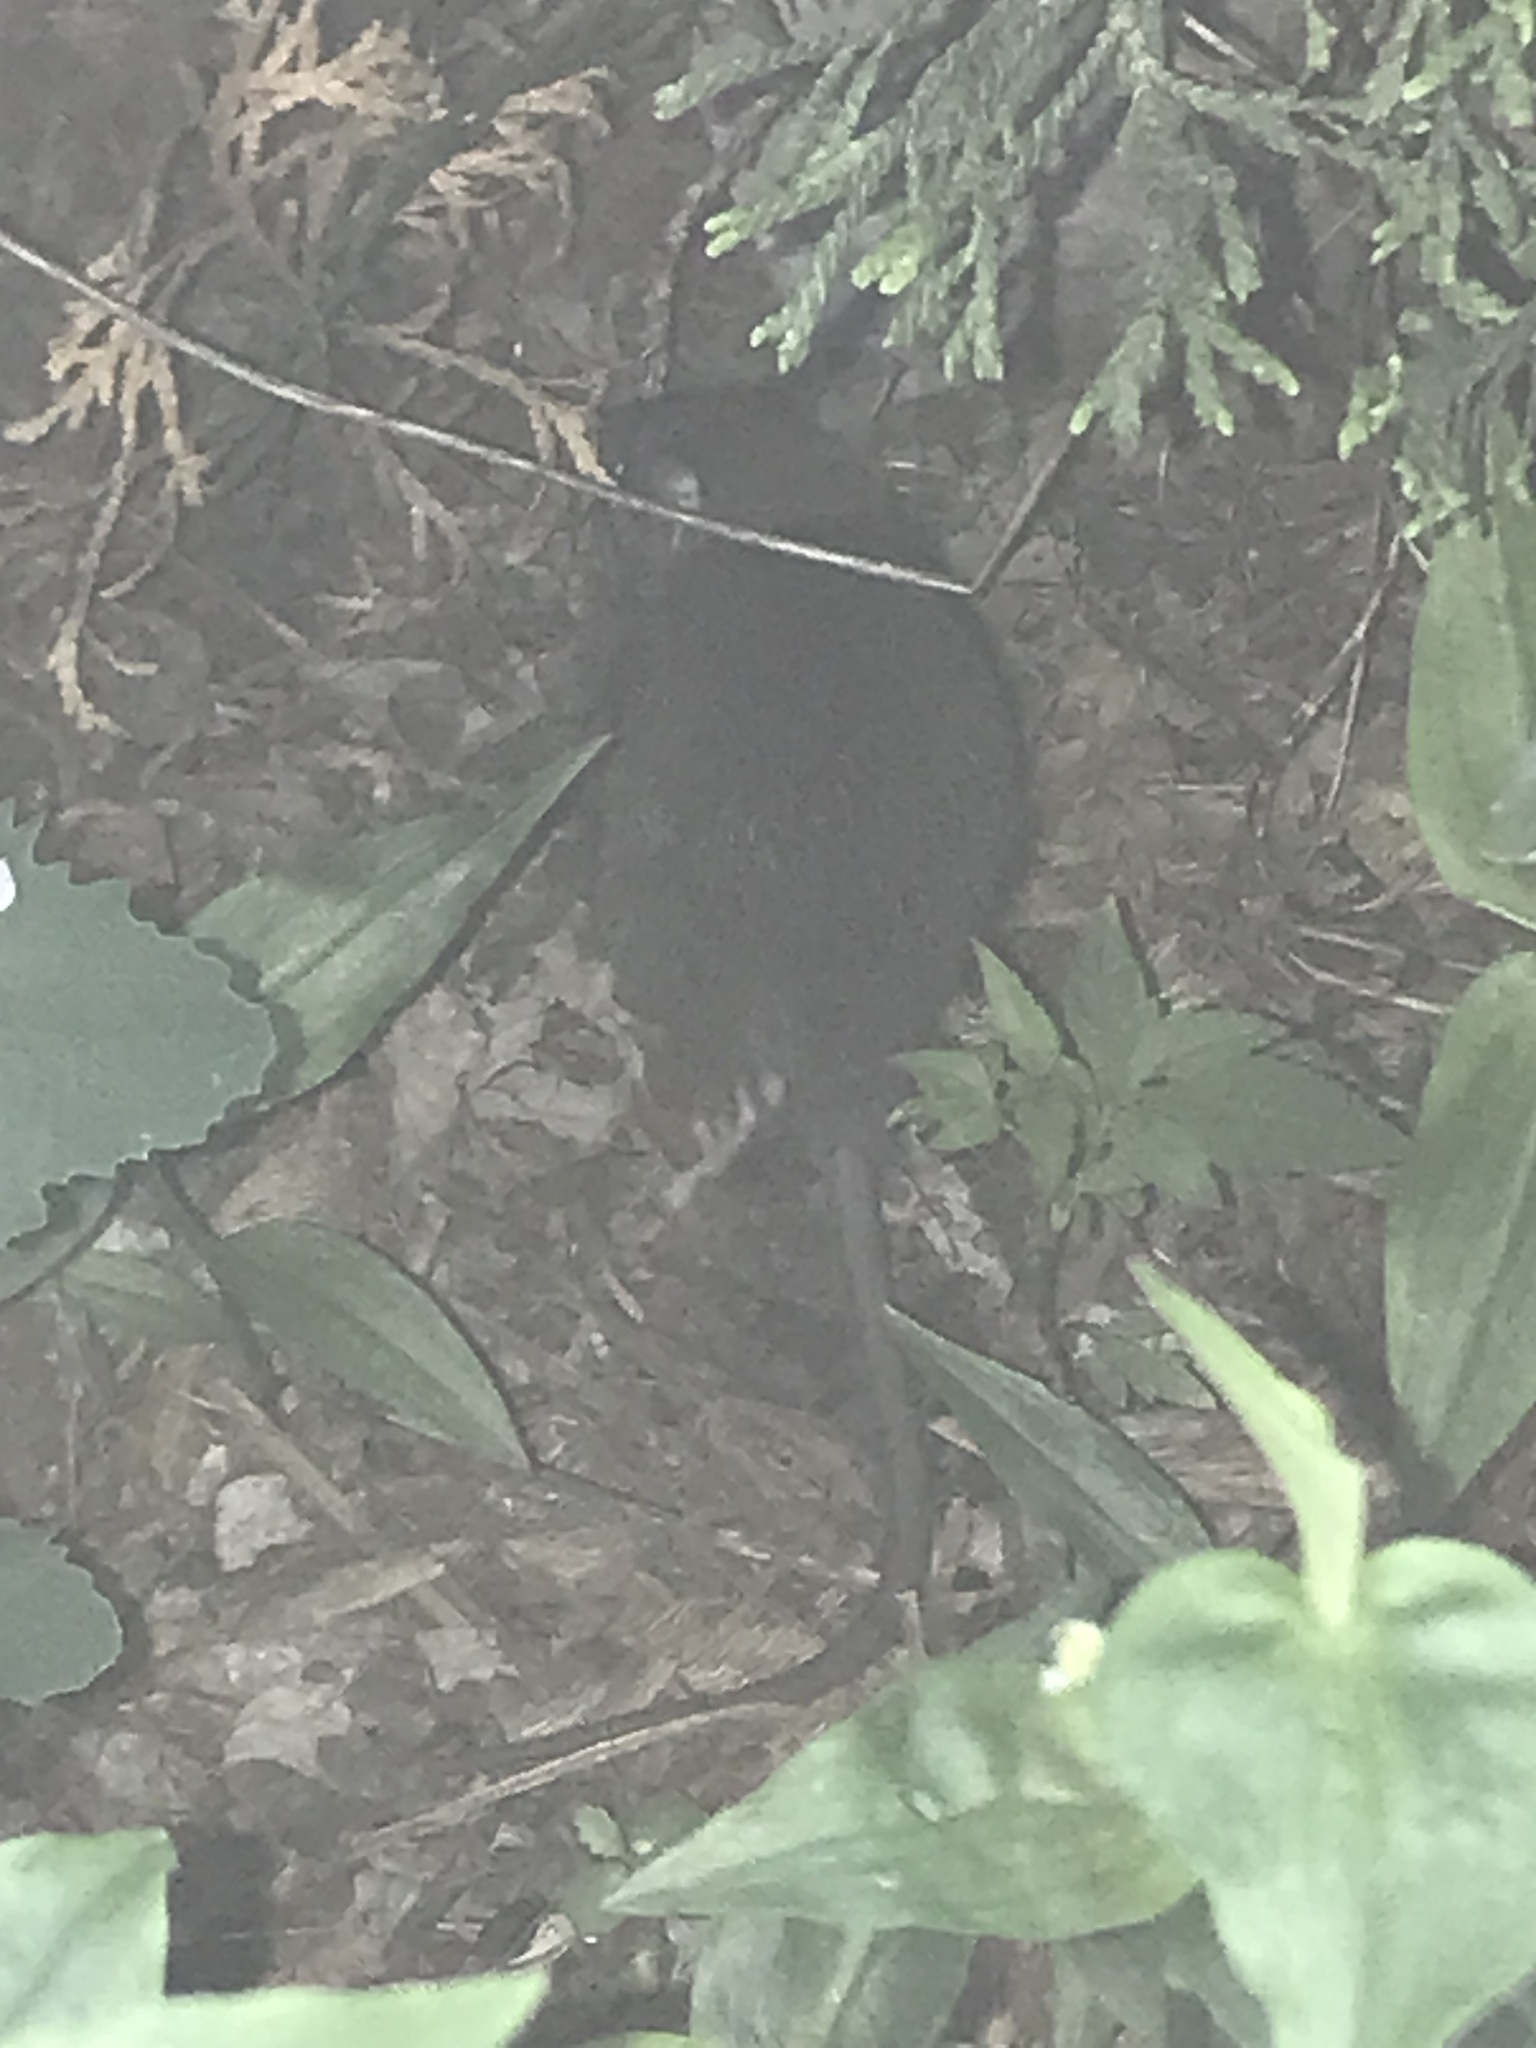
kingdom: Animalia
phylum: Chordata
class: Mammalia
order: Rodentia
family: Muridae
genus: Rattus
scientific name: Rattus norvegicus
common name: Brown rat
